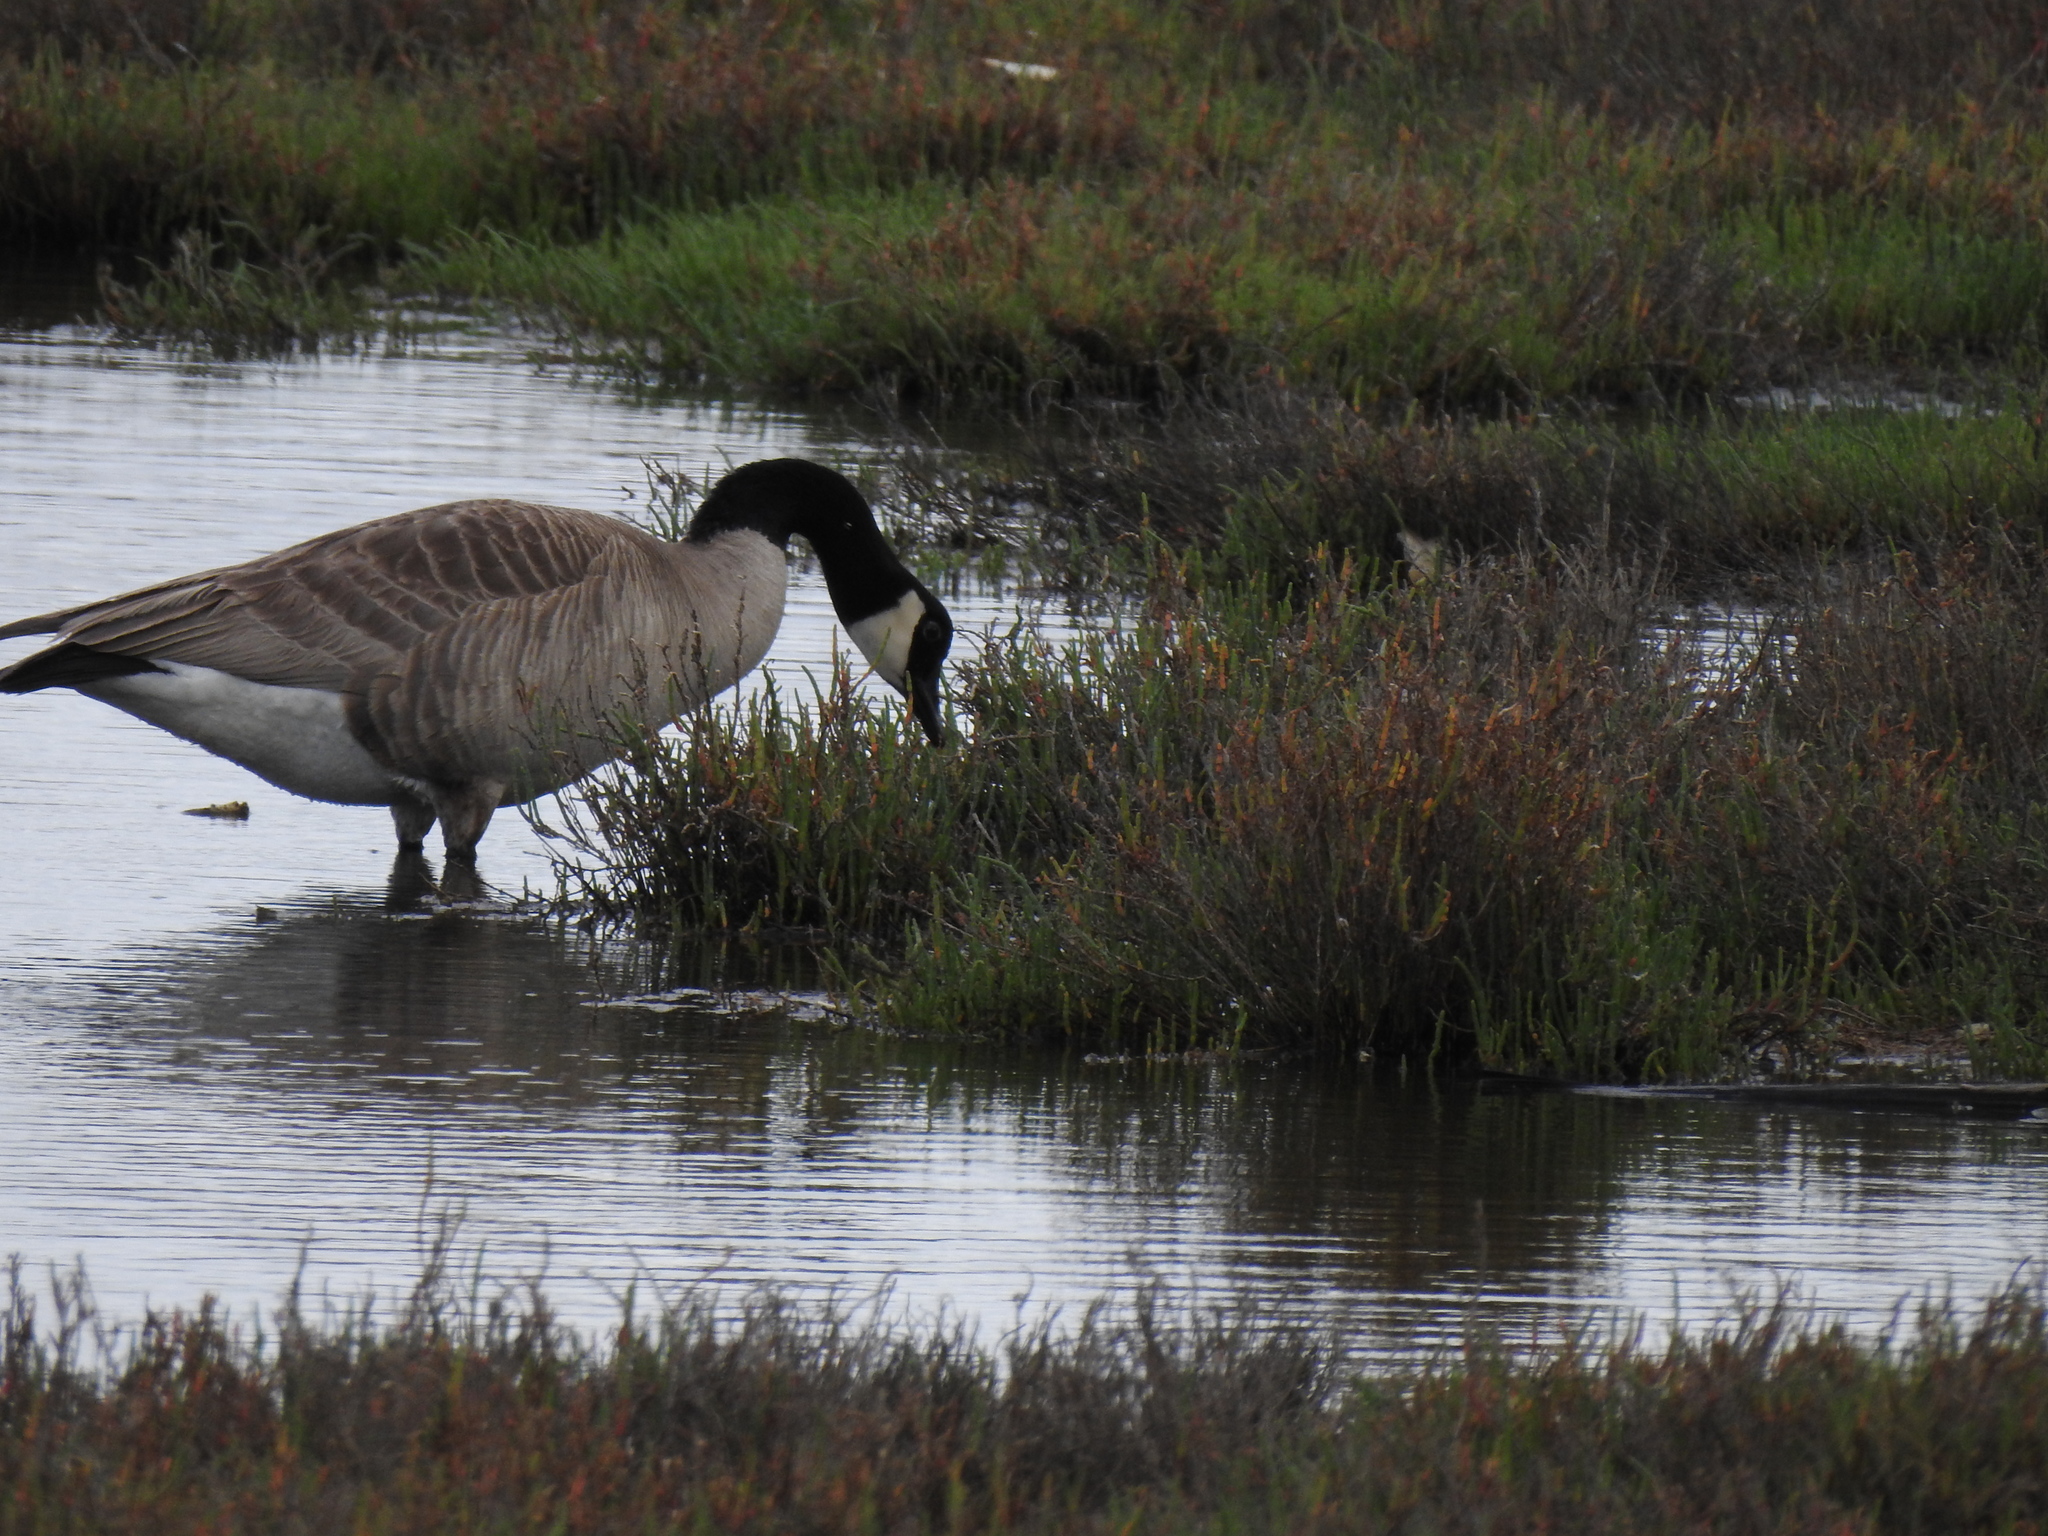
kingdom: Animalia
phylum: Chordata
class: Aves
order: Anseriformes
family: Anatidae
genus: Branta
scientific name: Branta canadensis
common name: Canada goose
